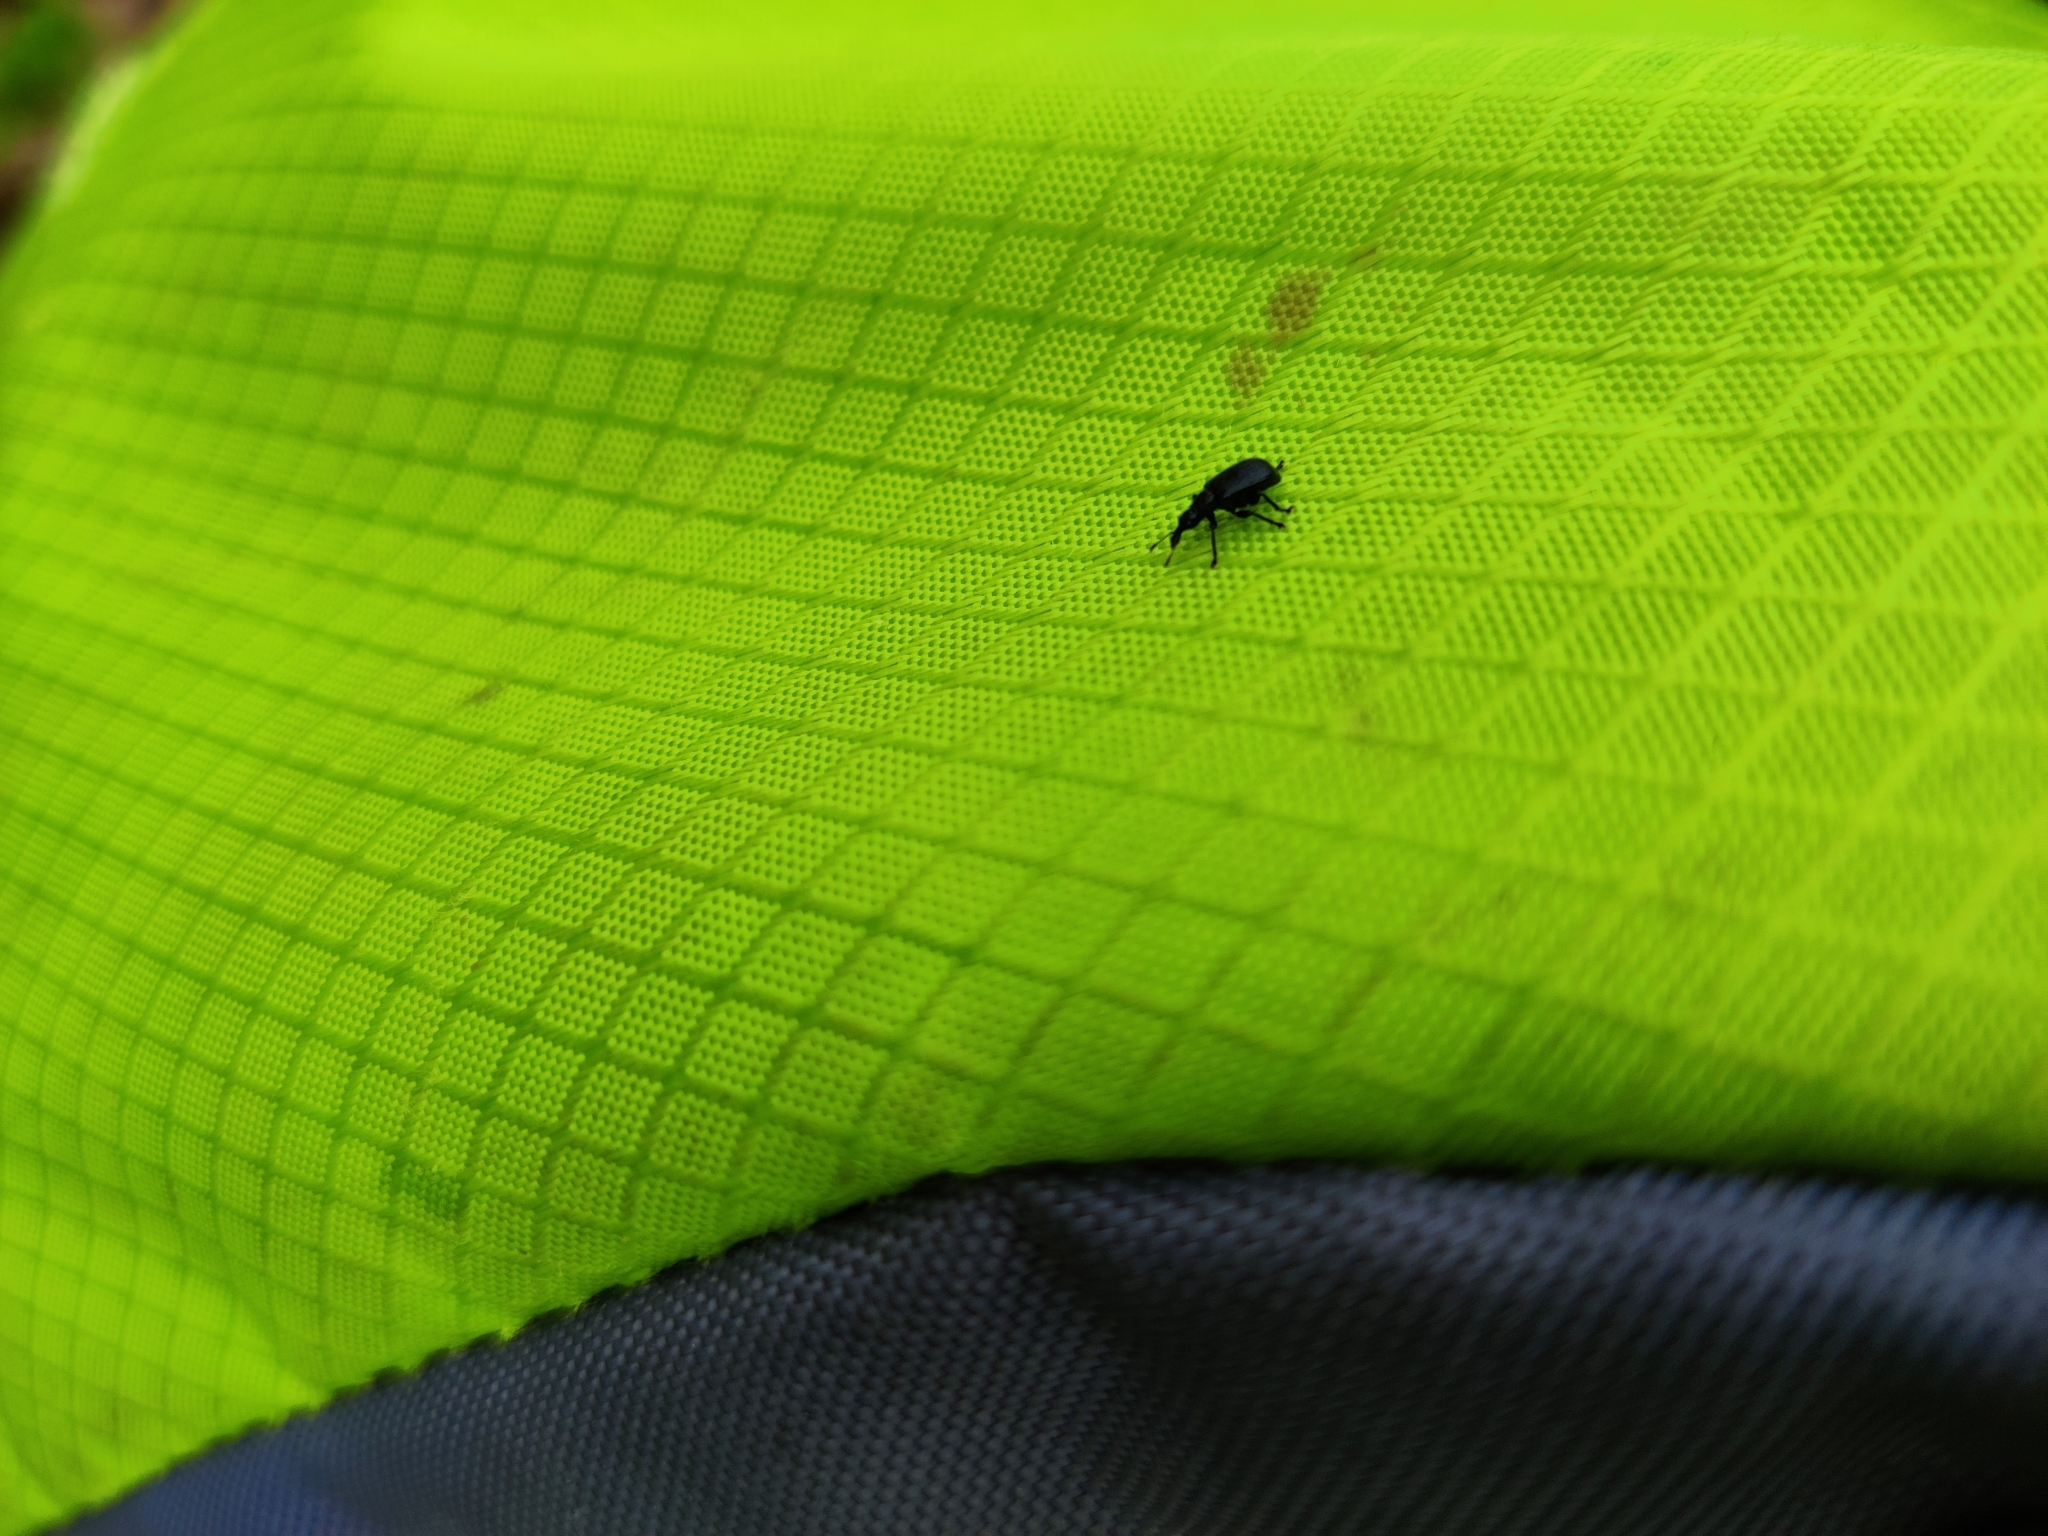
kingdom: Animalia
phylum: Arthropoda
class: Insecta
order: Coleoptera
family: Attelabidae
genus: Deporaus
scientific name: Deporaus betulae
